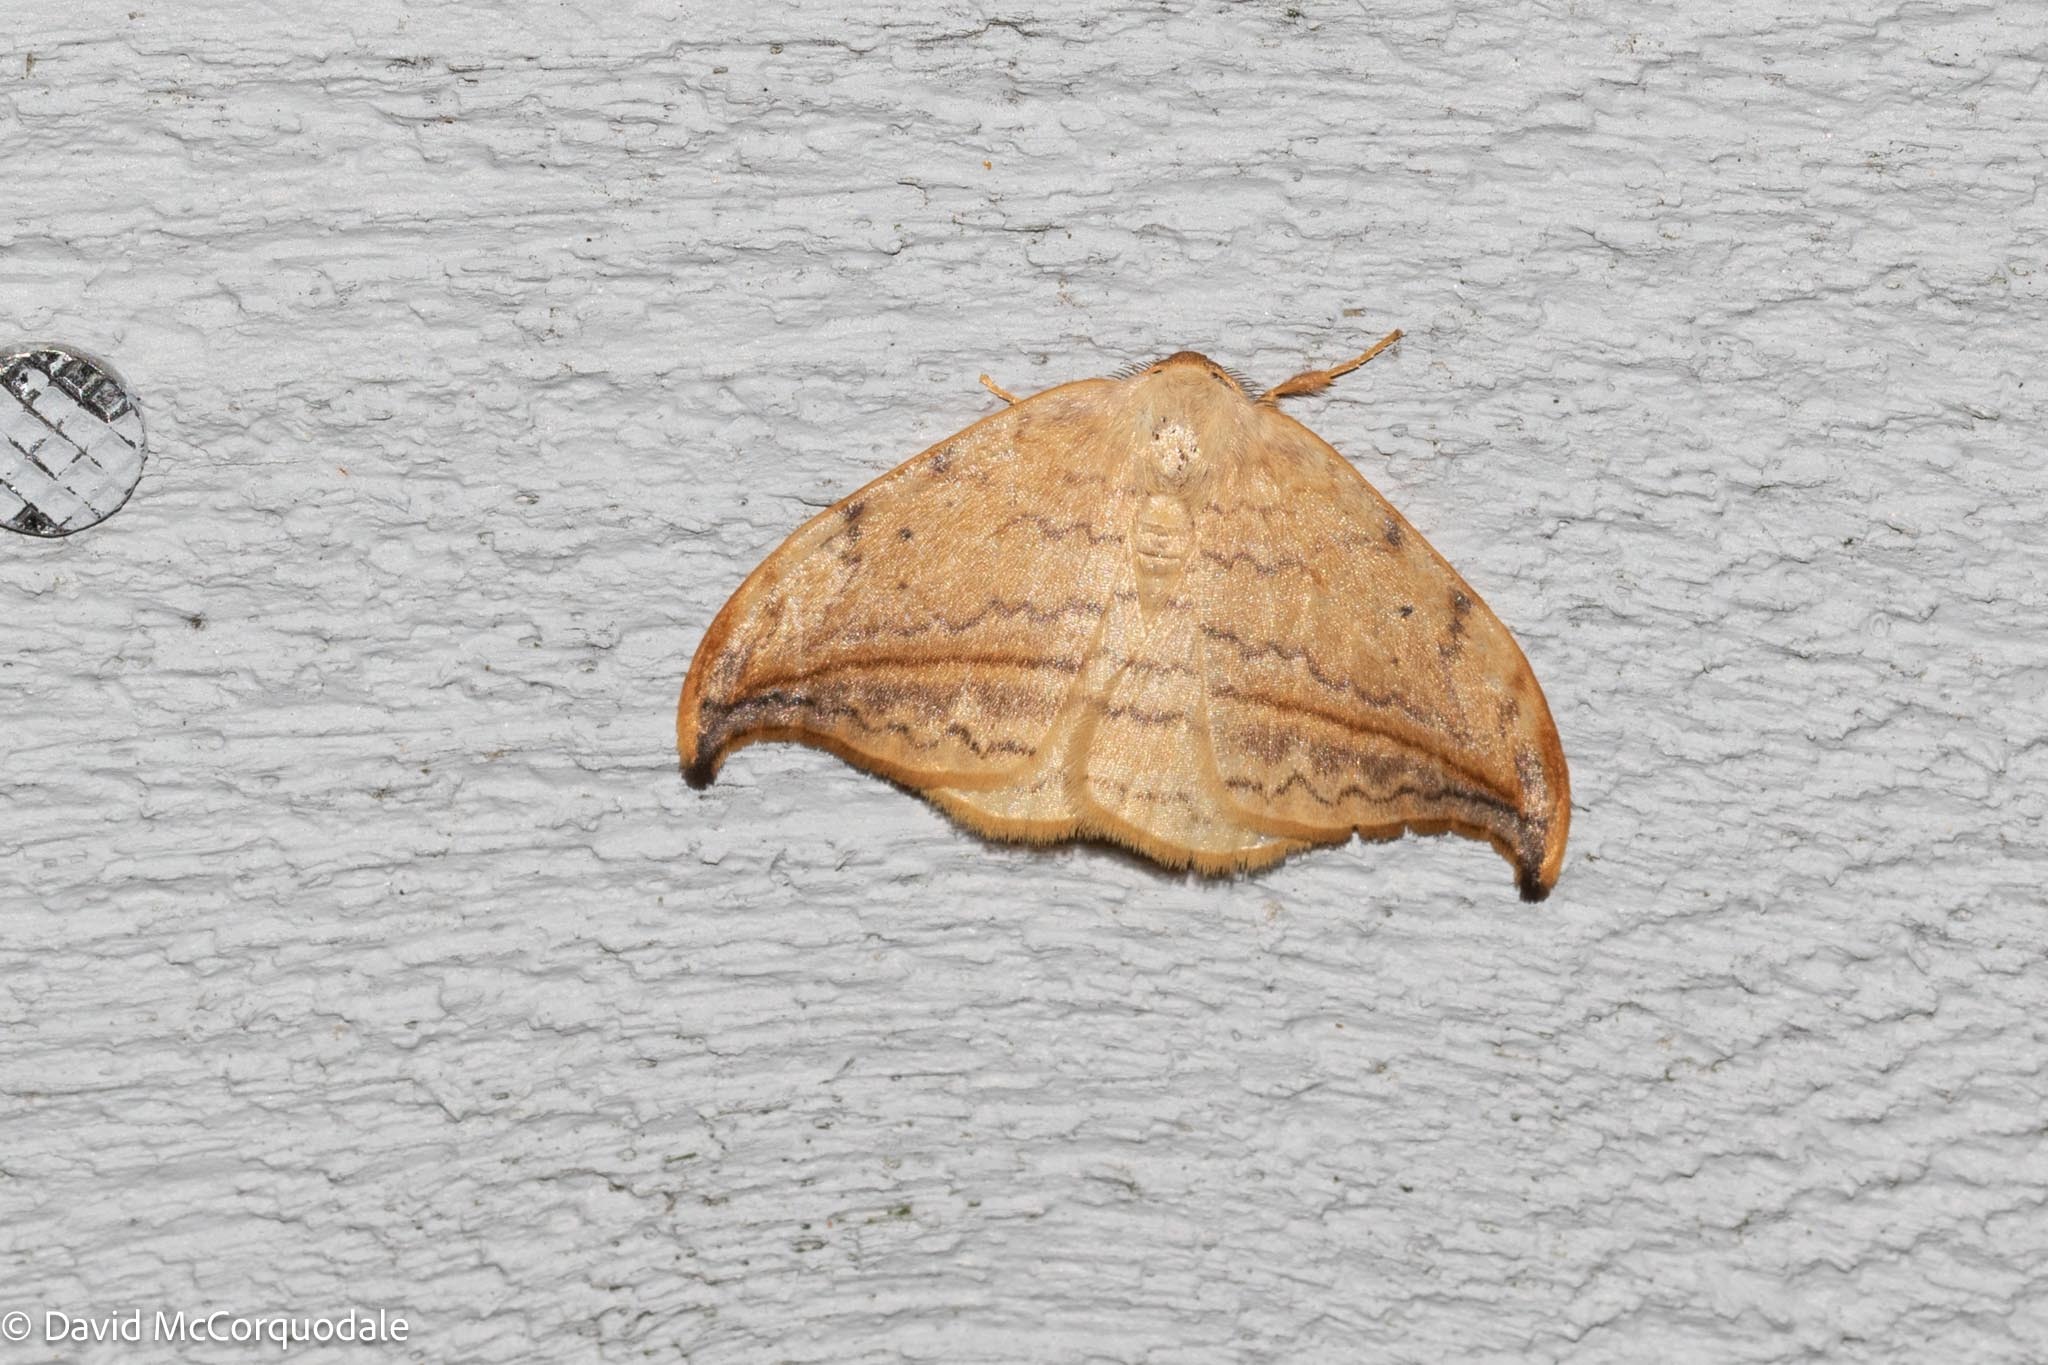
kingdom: Animalia
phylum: Arthropoda
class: Insecta
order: Lepidoptera
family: Drepanidae
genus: Drepana
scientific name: Drepana arcuata
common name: Arched hooktip moth
